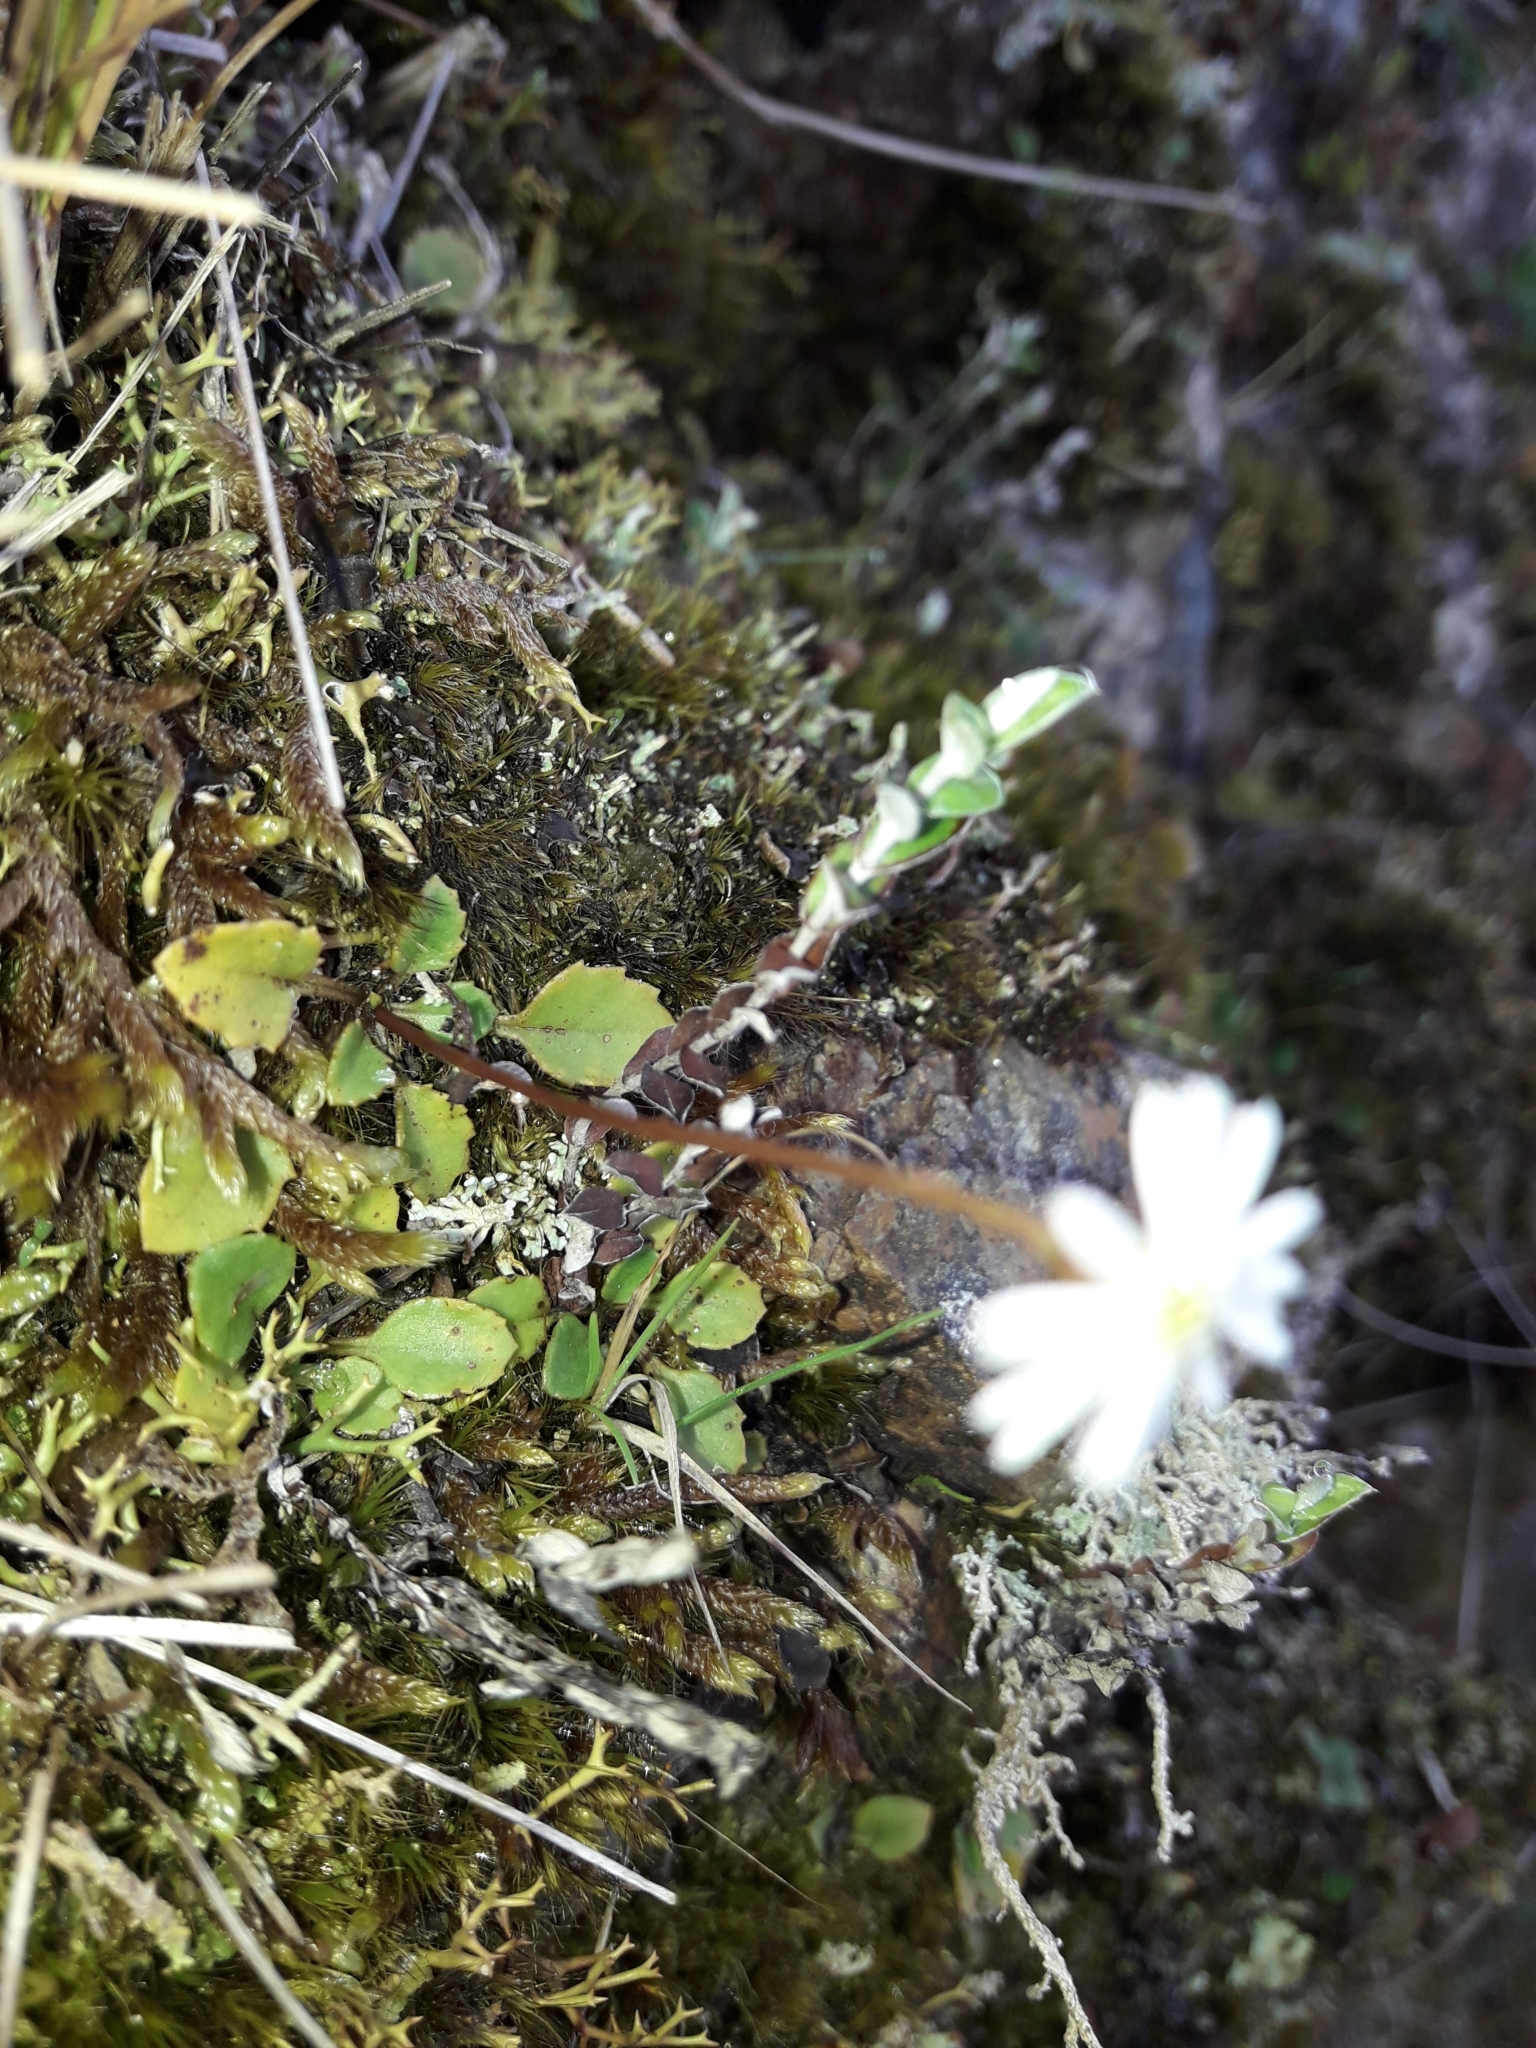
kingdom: Plantae
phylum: Tracheophyta
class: Magnoliopsida
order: Asterales
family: Asteraceae
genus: Lagenophora
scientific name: Lagenophora pumila
